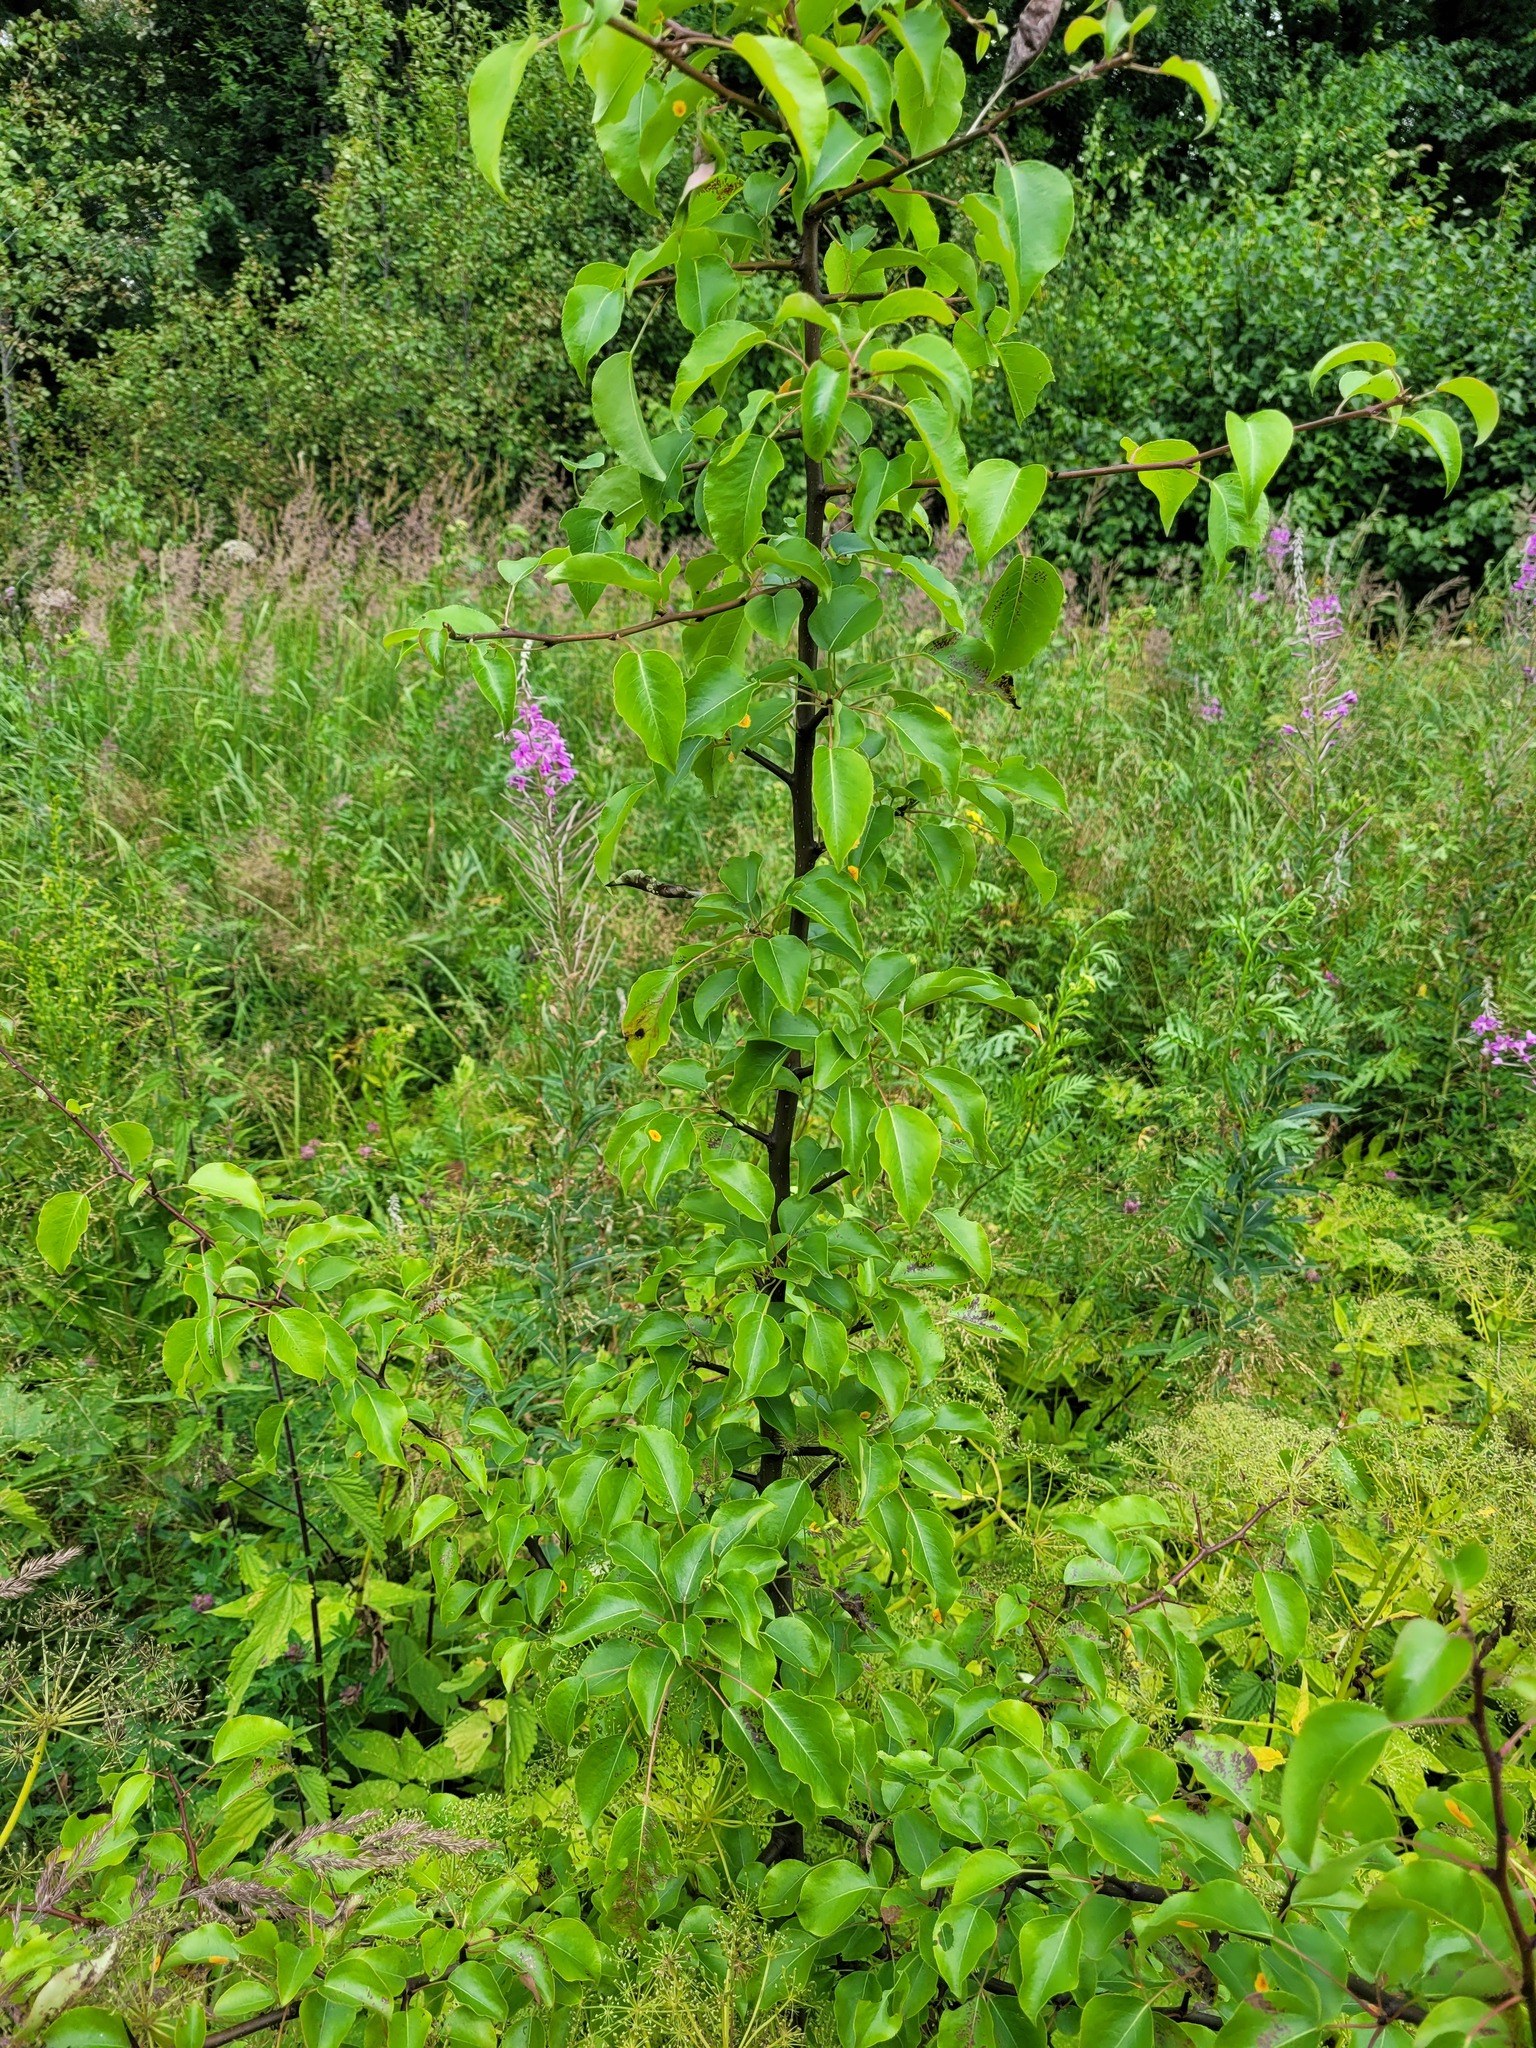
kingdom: Plantae
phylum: Tracheophyta
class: Magnoliopsida
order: Rosales
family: Rosaceae
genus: Pyrus
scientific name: Pyrus communis
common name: Pear
